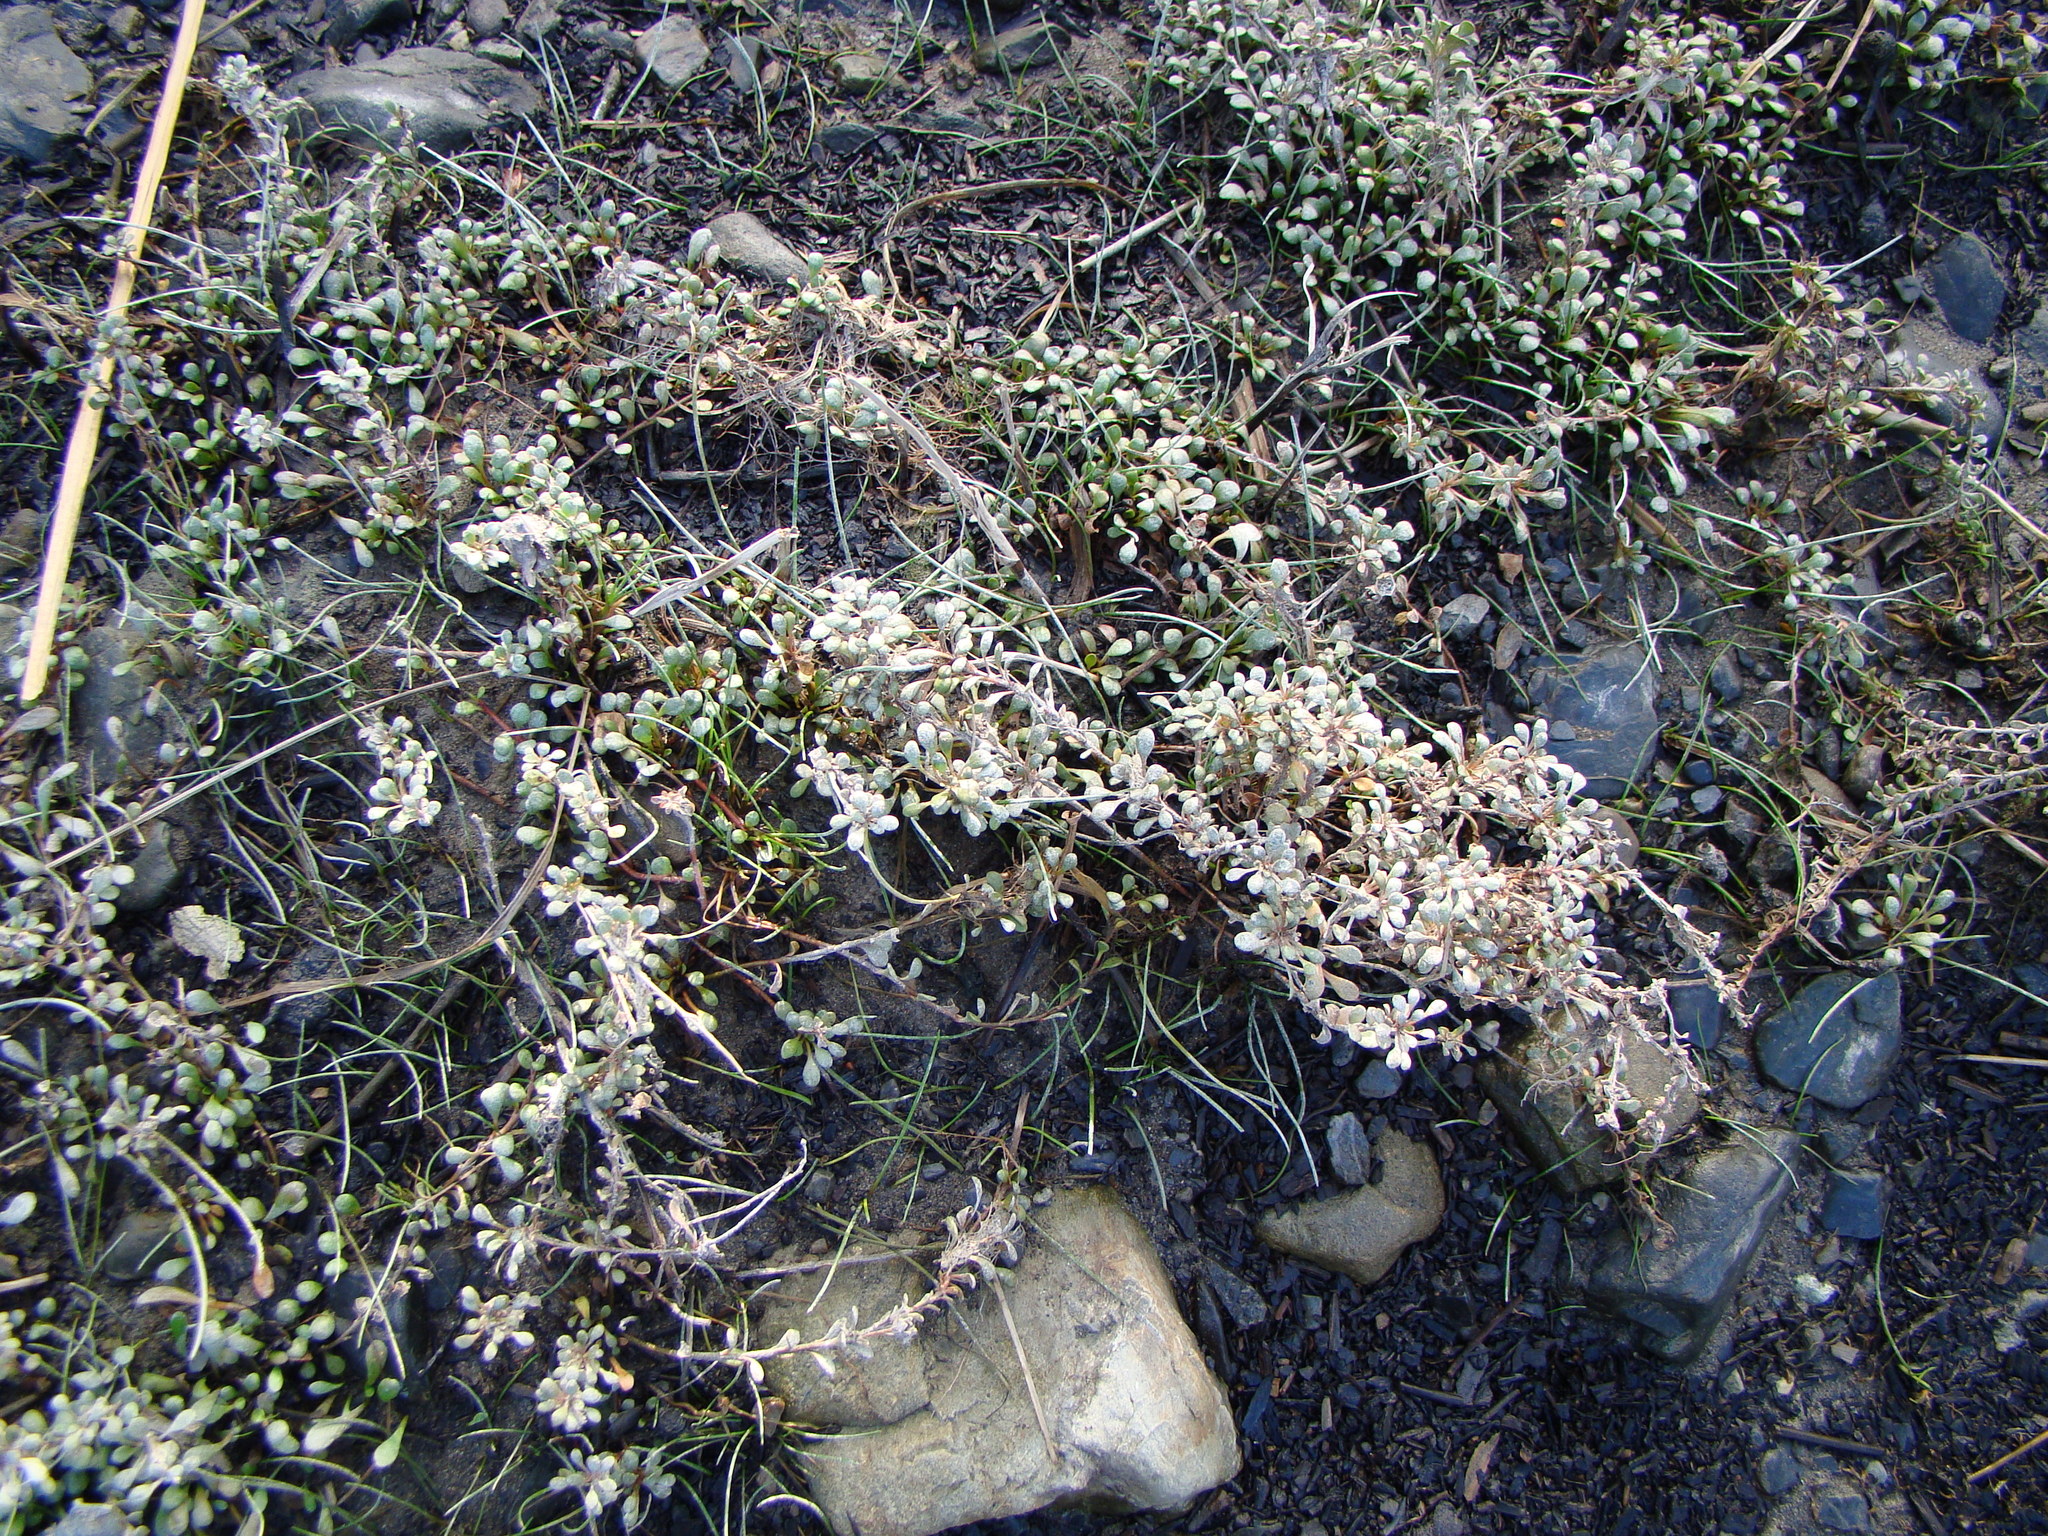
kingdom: Plantae
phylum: Tracheophyta
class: Magnoliopsida
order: Ericales
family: Primulaceae
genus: Samolus
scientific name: Samolus repens
